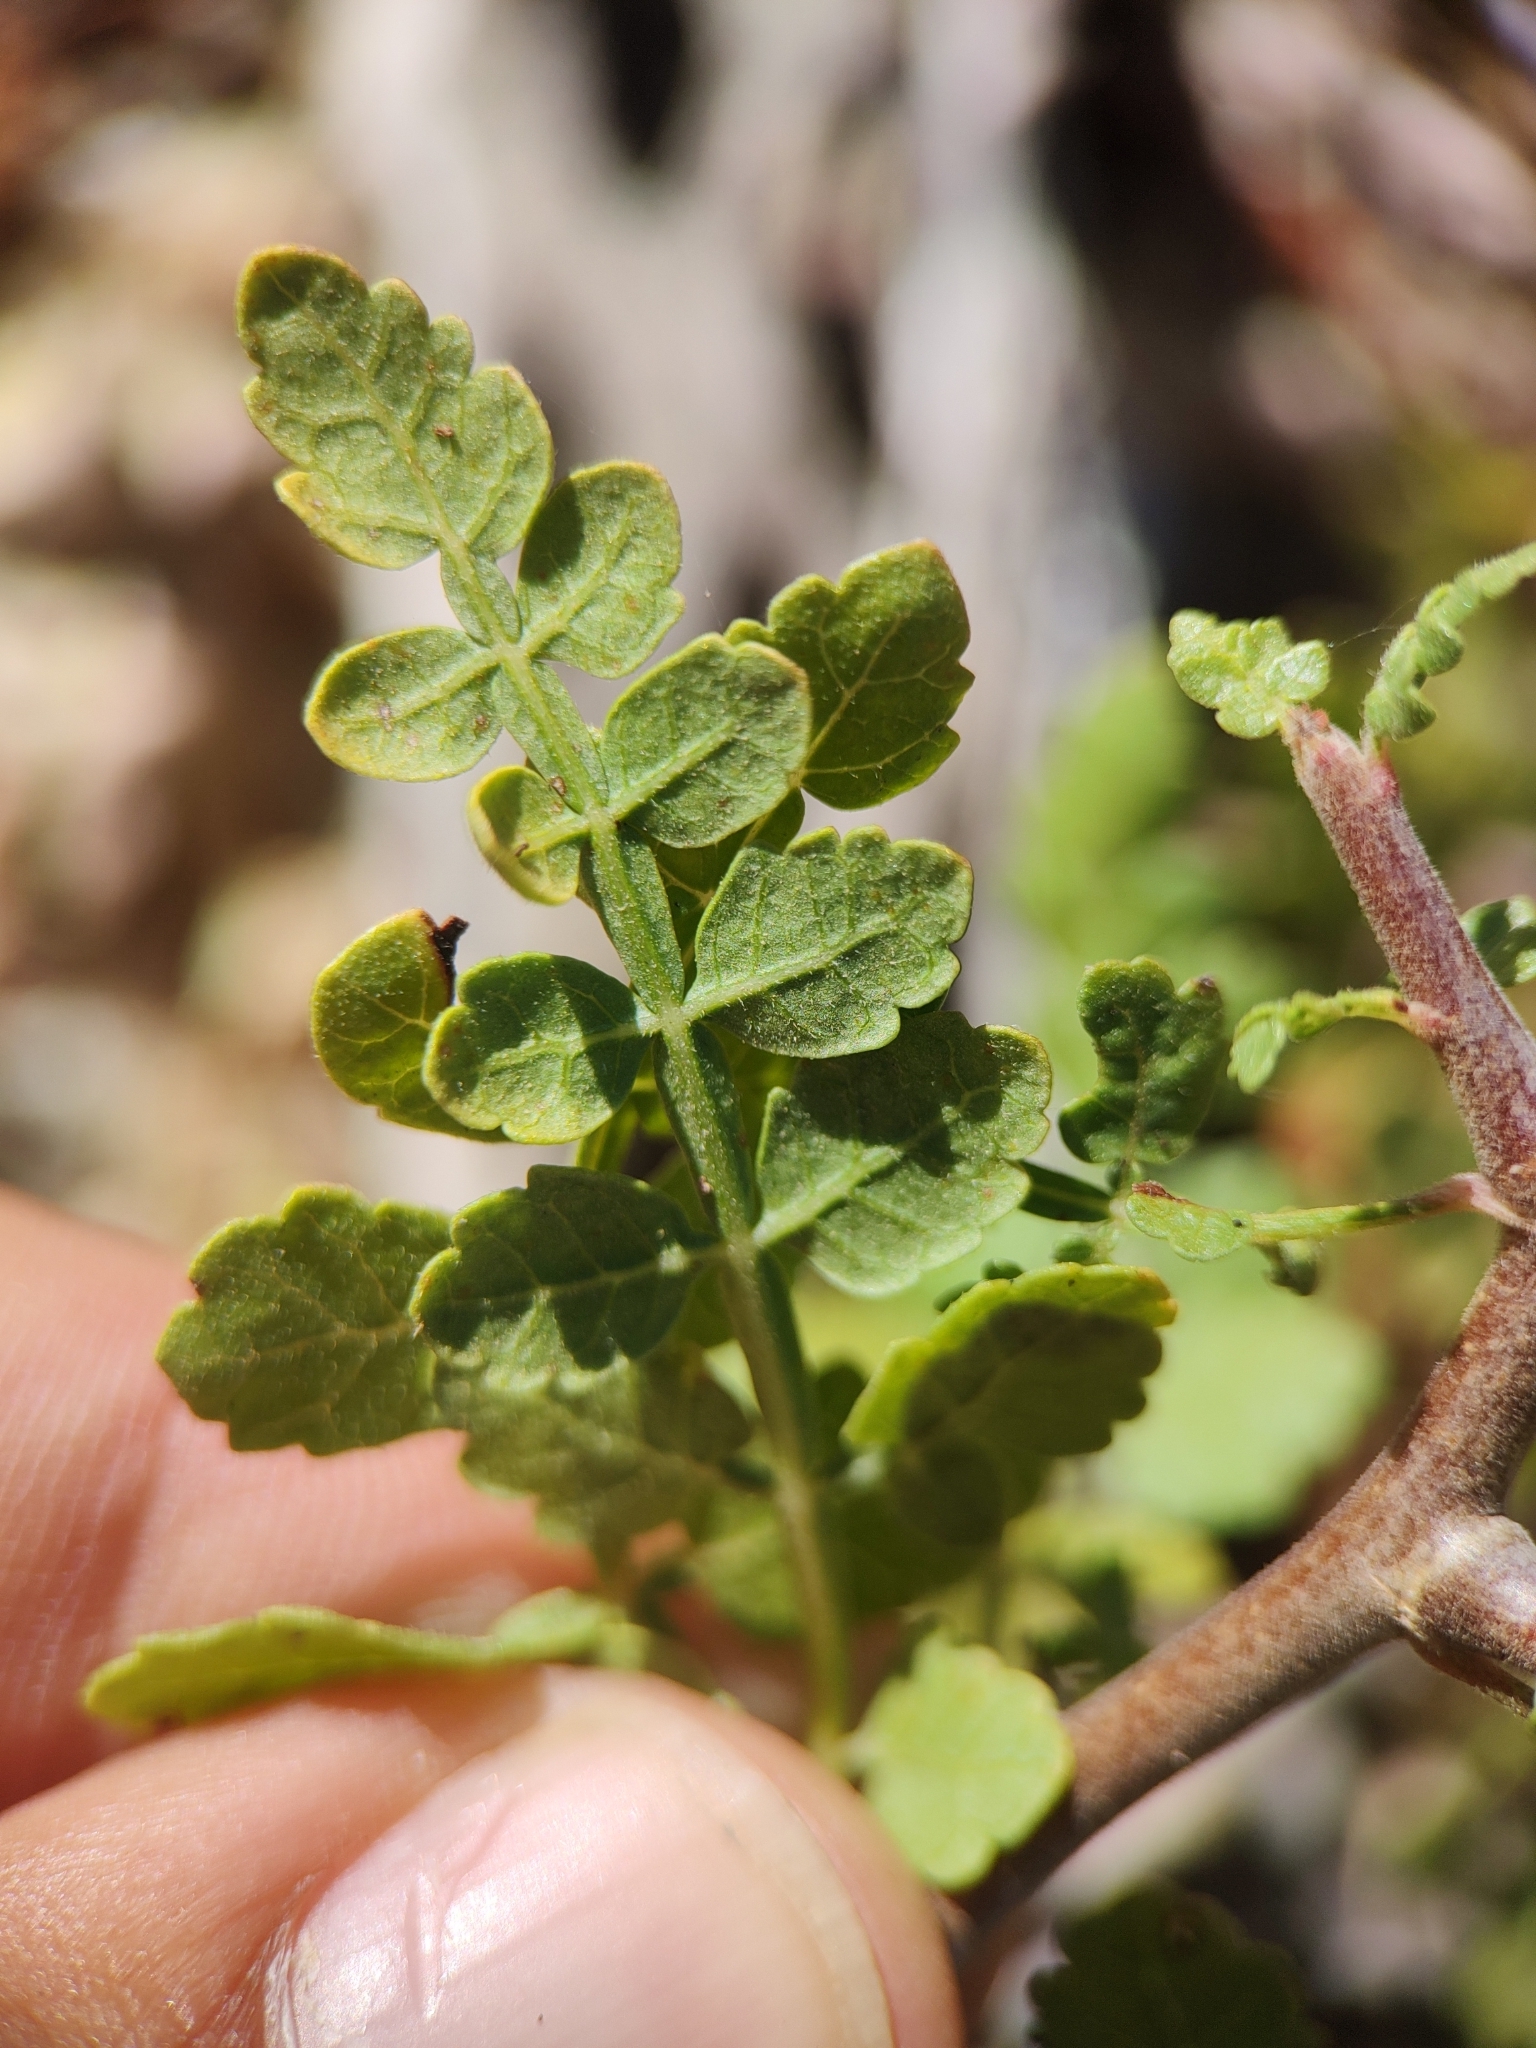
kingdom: Plantae
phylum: Tracheophyta
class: Magnoliopsida
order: Sapindales
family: Burseraceae
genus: Bursera
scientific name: Bursera littoralis
